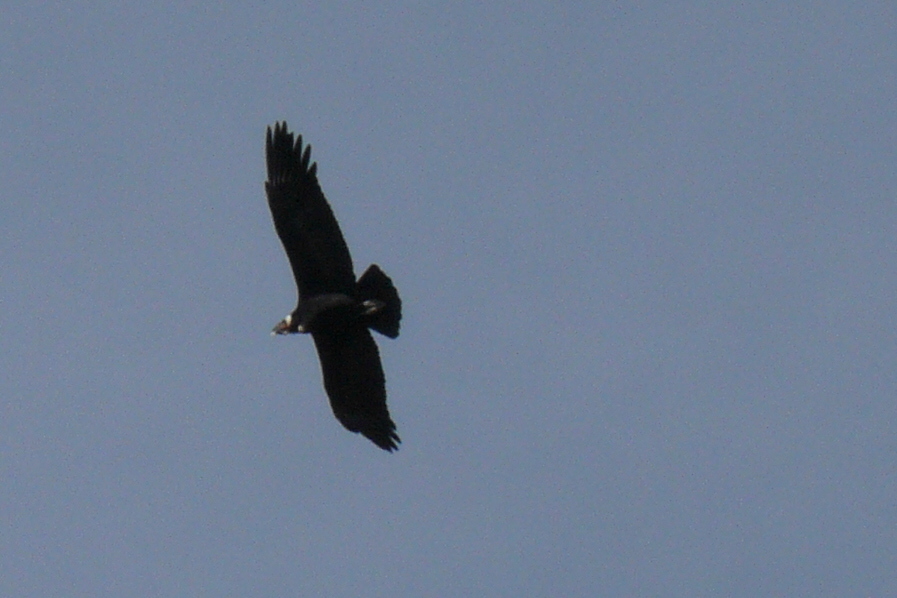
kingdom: Animalia
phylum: Chordata
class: Aves
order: Accipitriformes
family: Cathartidae
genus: Vultur
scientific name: Vultur gryphus
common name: Andean condor
